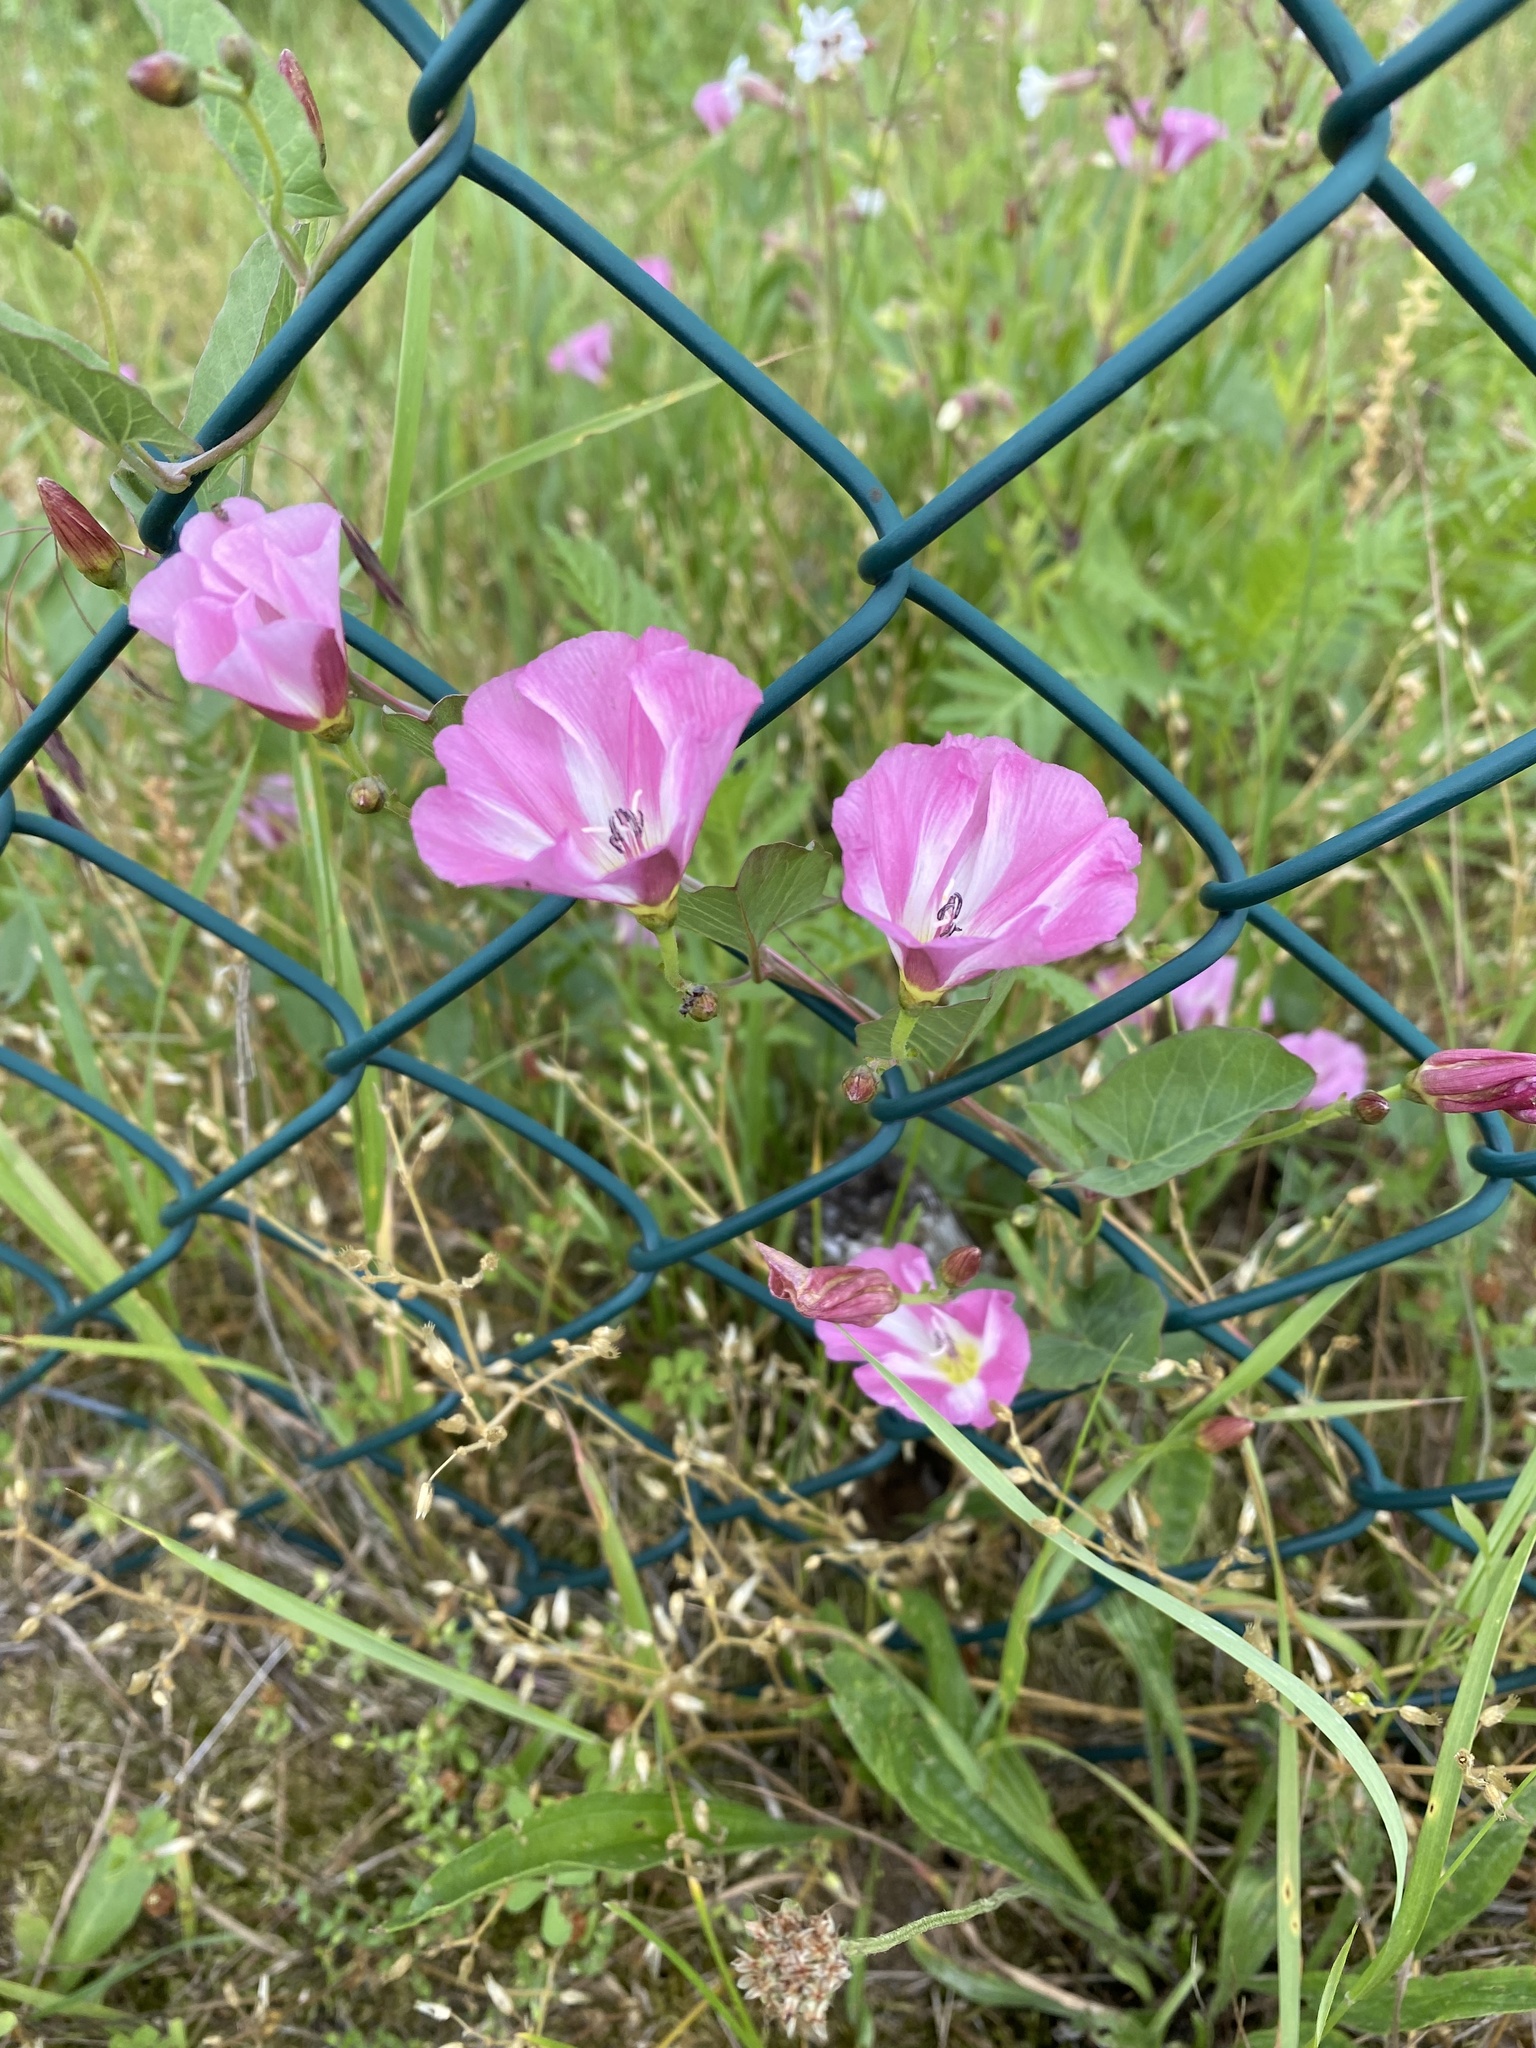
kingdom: Plantae
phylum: Tracheophyta
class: Magnoliopsida
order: Solanales
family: Convolvulaceae
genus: Convolvulus
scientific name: Convolvulus arvensis
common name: Field bindweed
